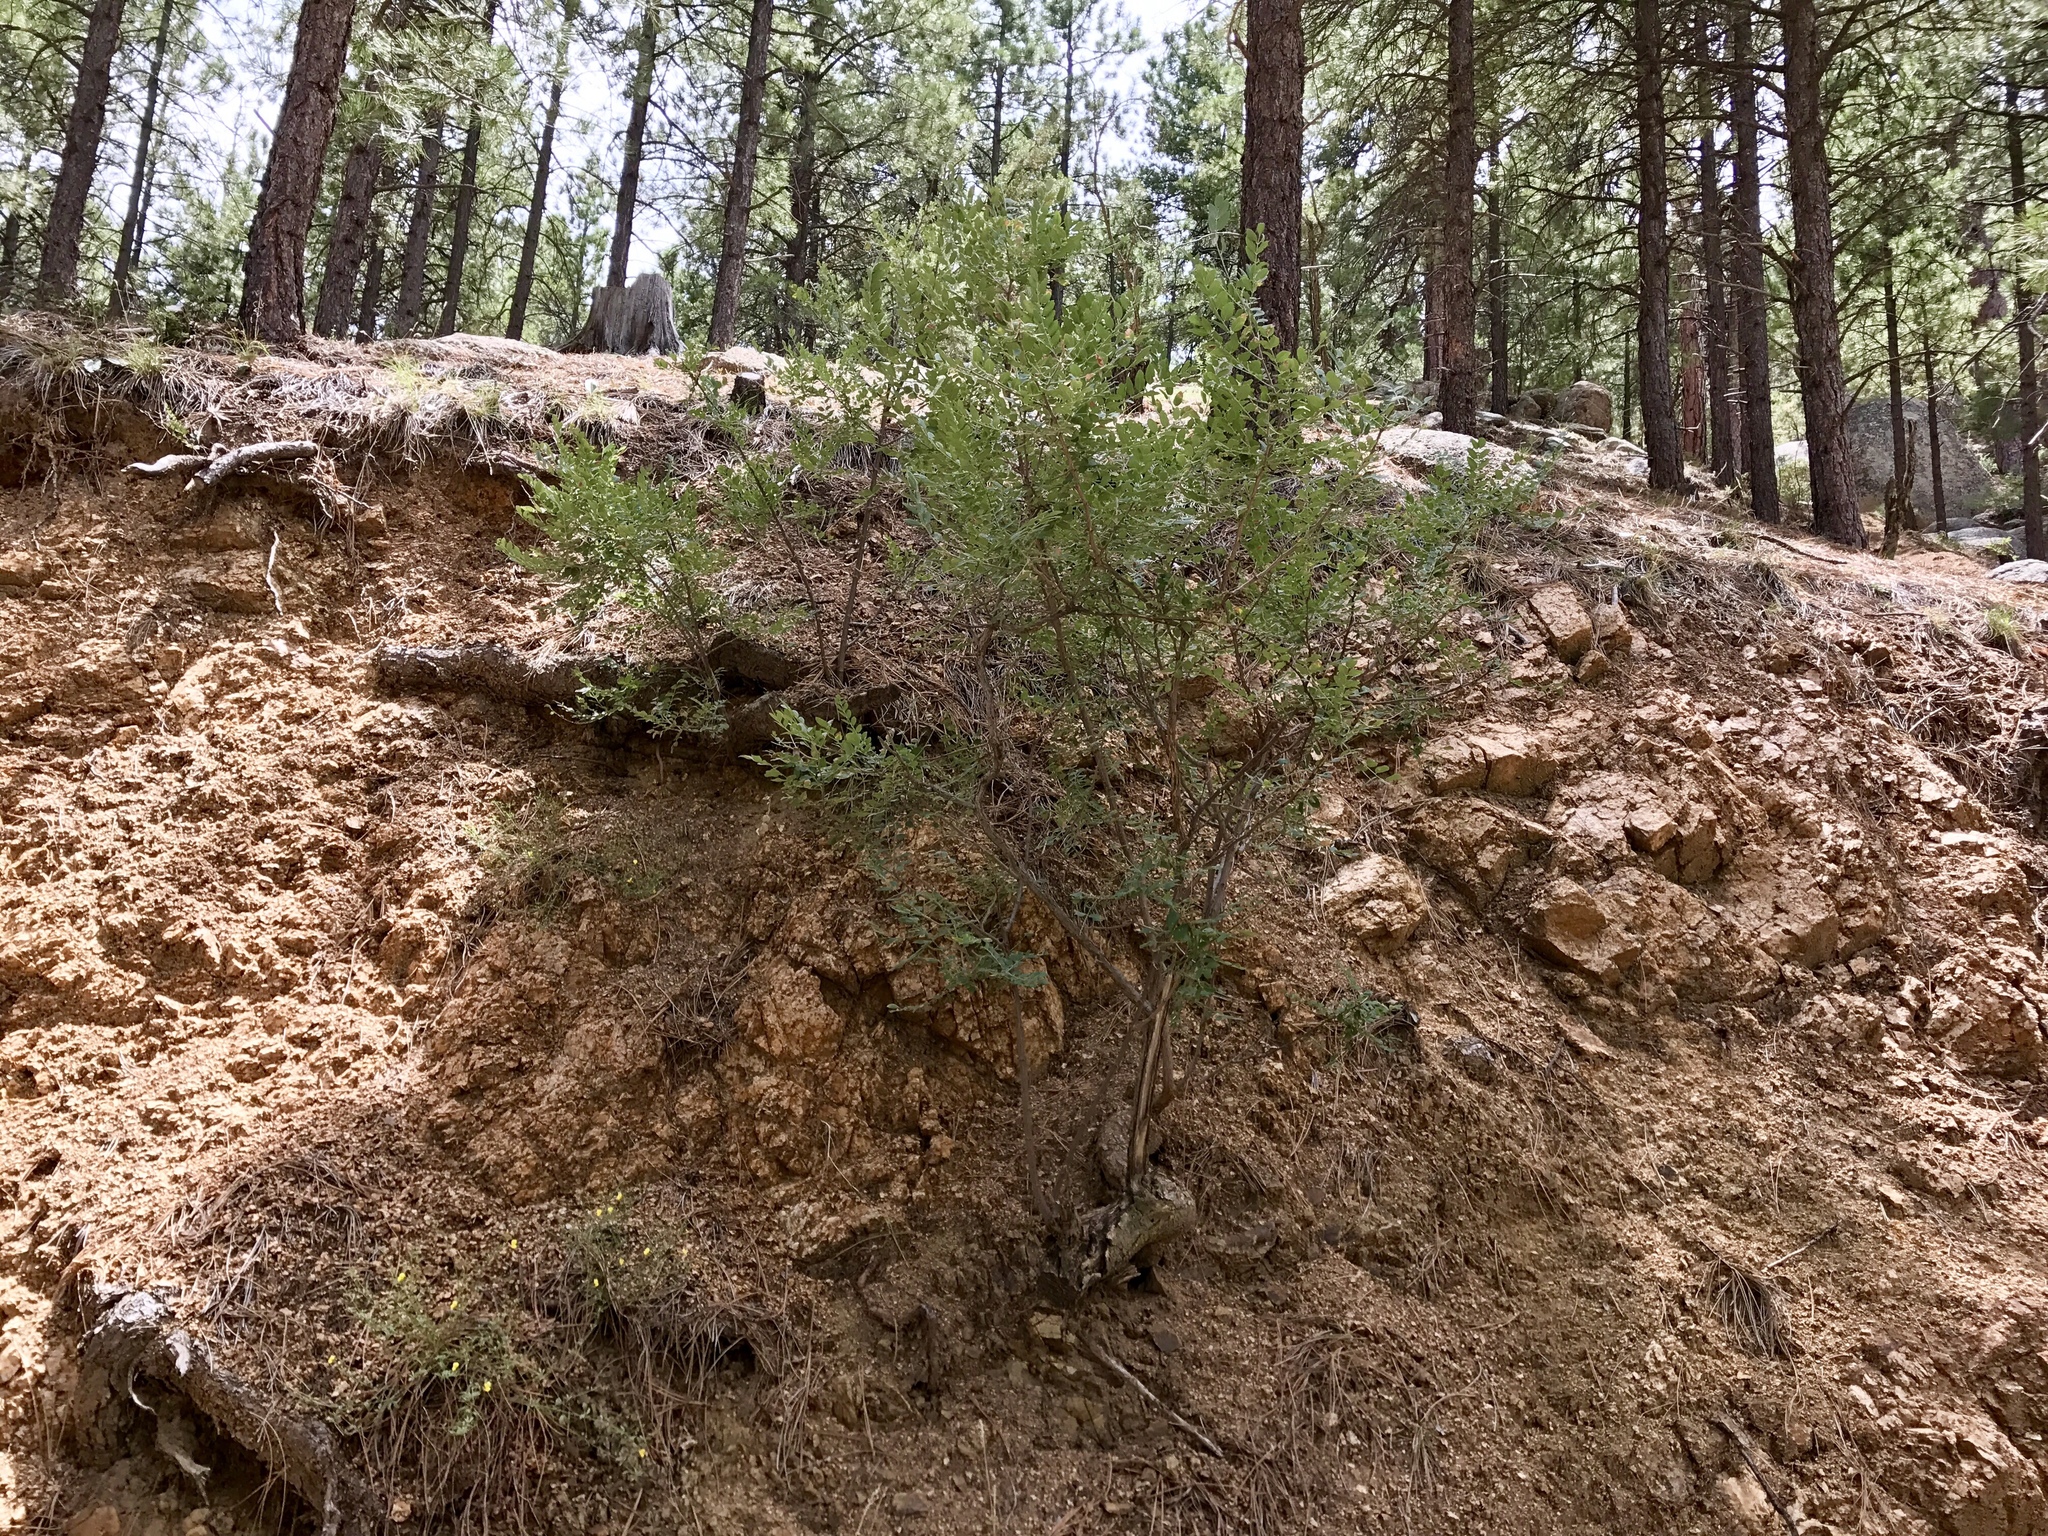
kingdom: Plantae
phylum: Tracheophyta
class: Magnoliopsida
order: Fabales
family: Fabaceae
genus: Robinia
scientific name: Robinia neomexicana
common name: New mexico locust
